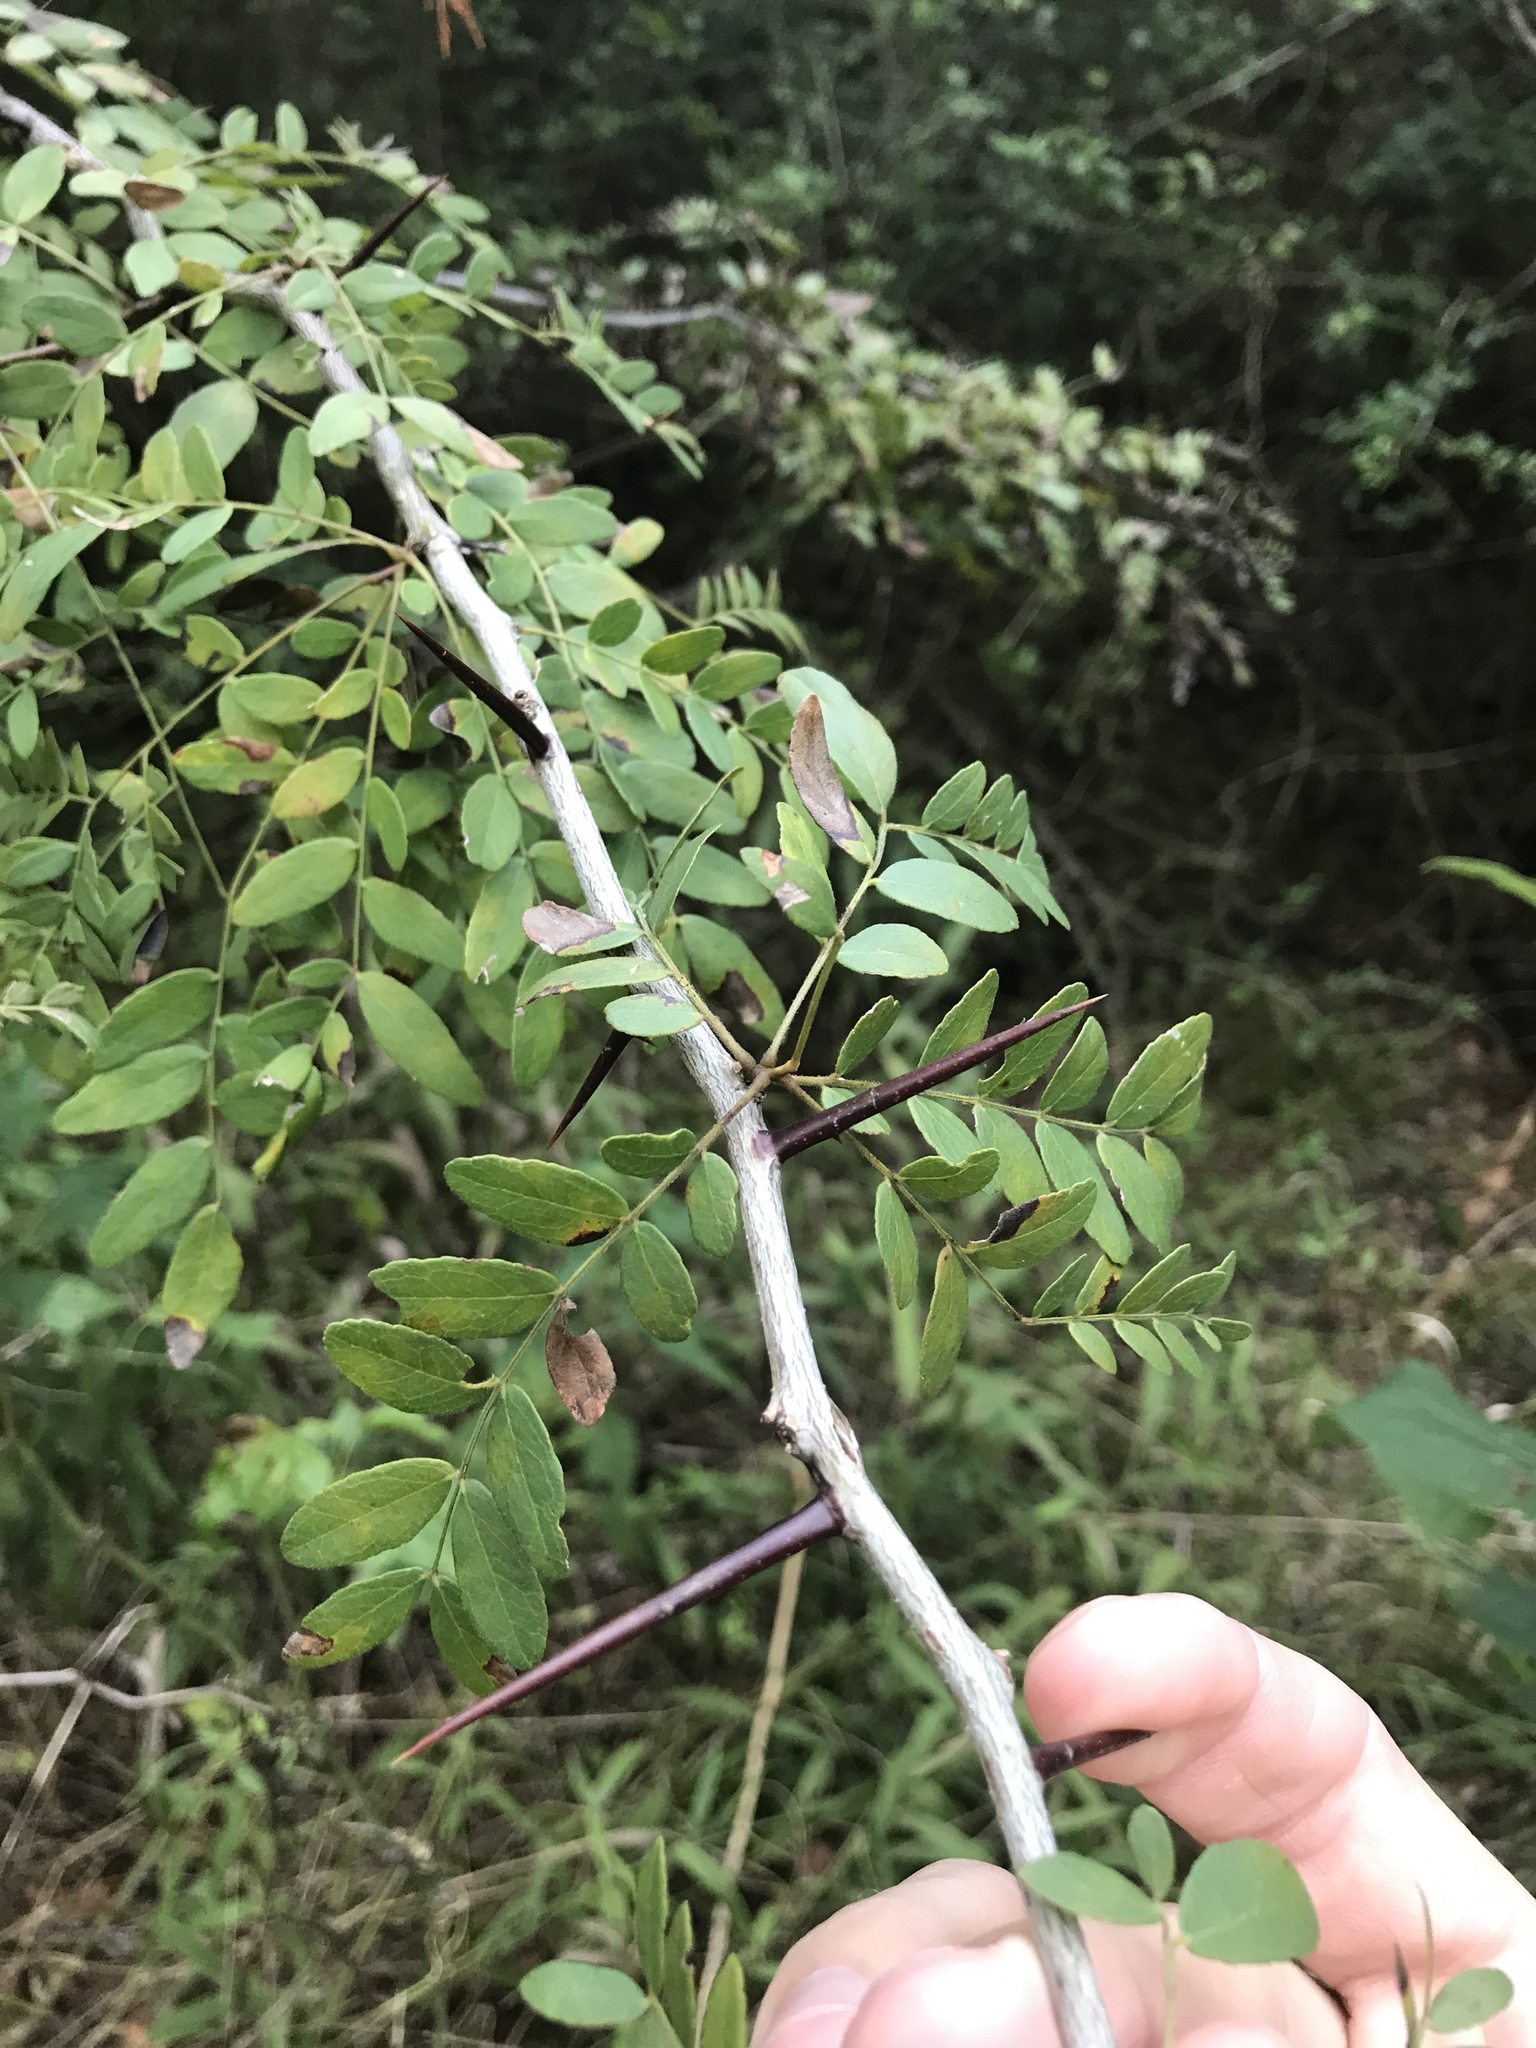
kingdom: Plantae
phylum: Tracheophyta
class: Magnoliopsida
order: Fabales
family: Fabaceae
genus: Gleditsia
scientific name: Gleditsia triacanthos
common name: Common honeylocust
